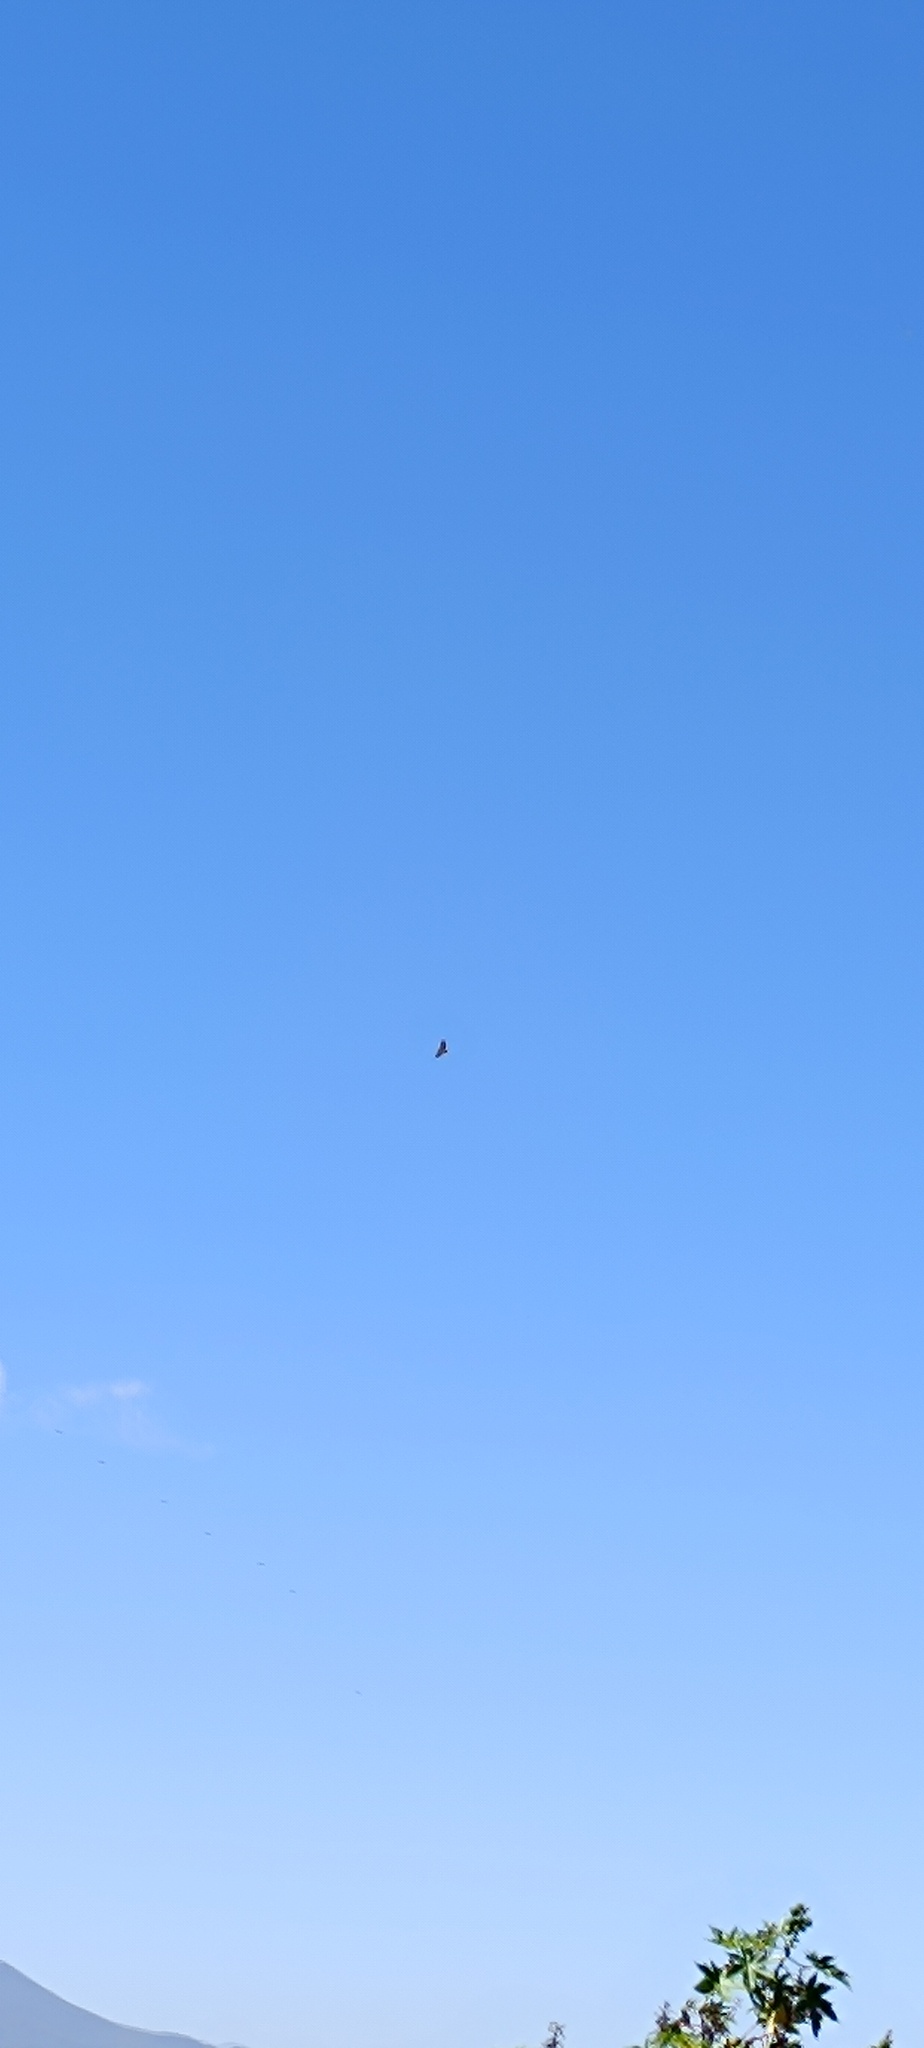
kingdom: Animalia
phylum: Chordata
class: Aves
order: Accipitriformes
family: Accipitridae
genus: Buteo
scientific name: Buteo jamaicensis
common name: Red-tailed hawk
